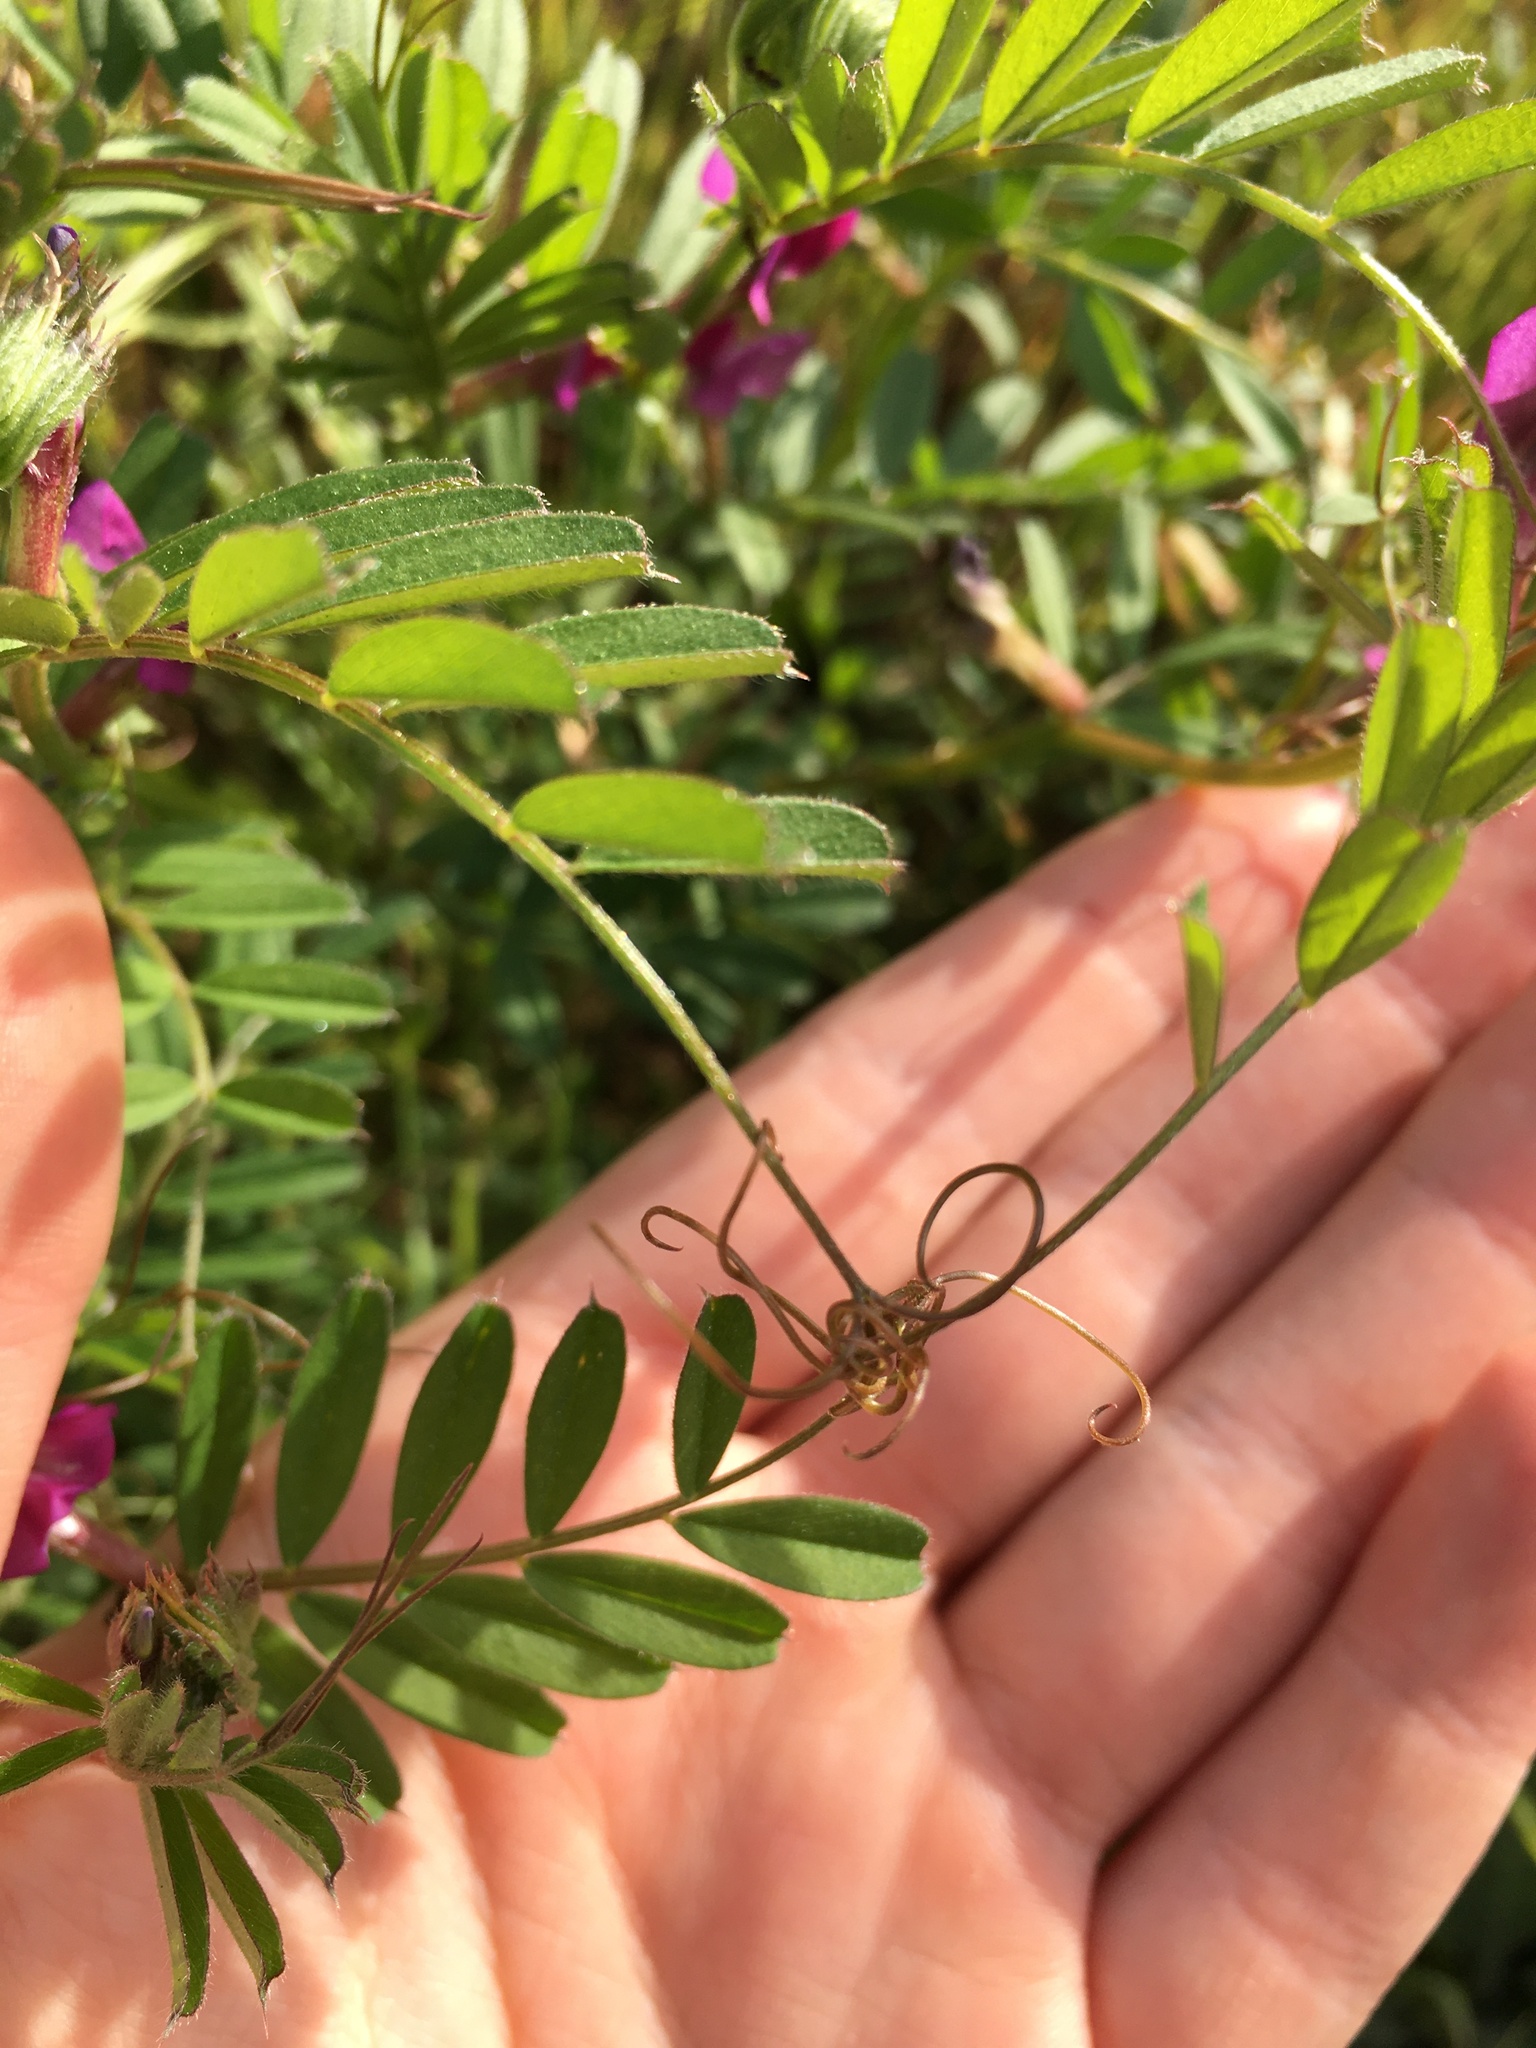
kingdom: Plantae
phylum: Tracheophyta
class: Magnoliopsida
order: Fabales
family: Fabaceae
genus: Vicia
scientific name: Vicia sativa
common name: Garden vetch
